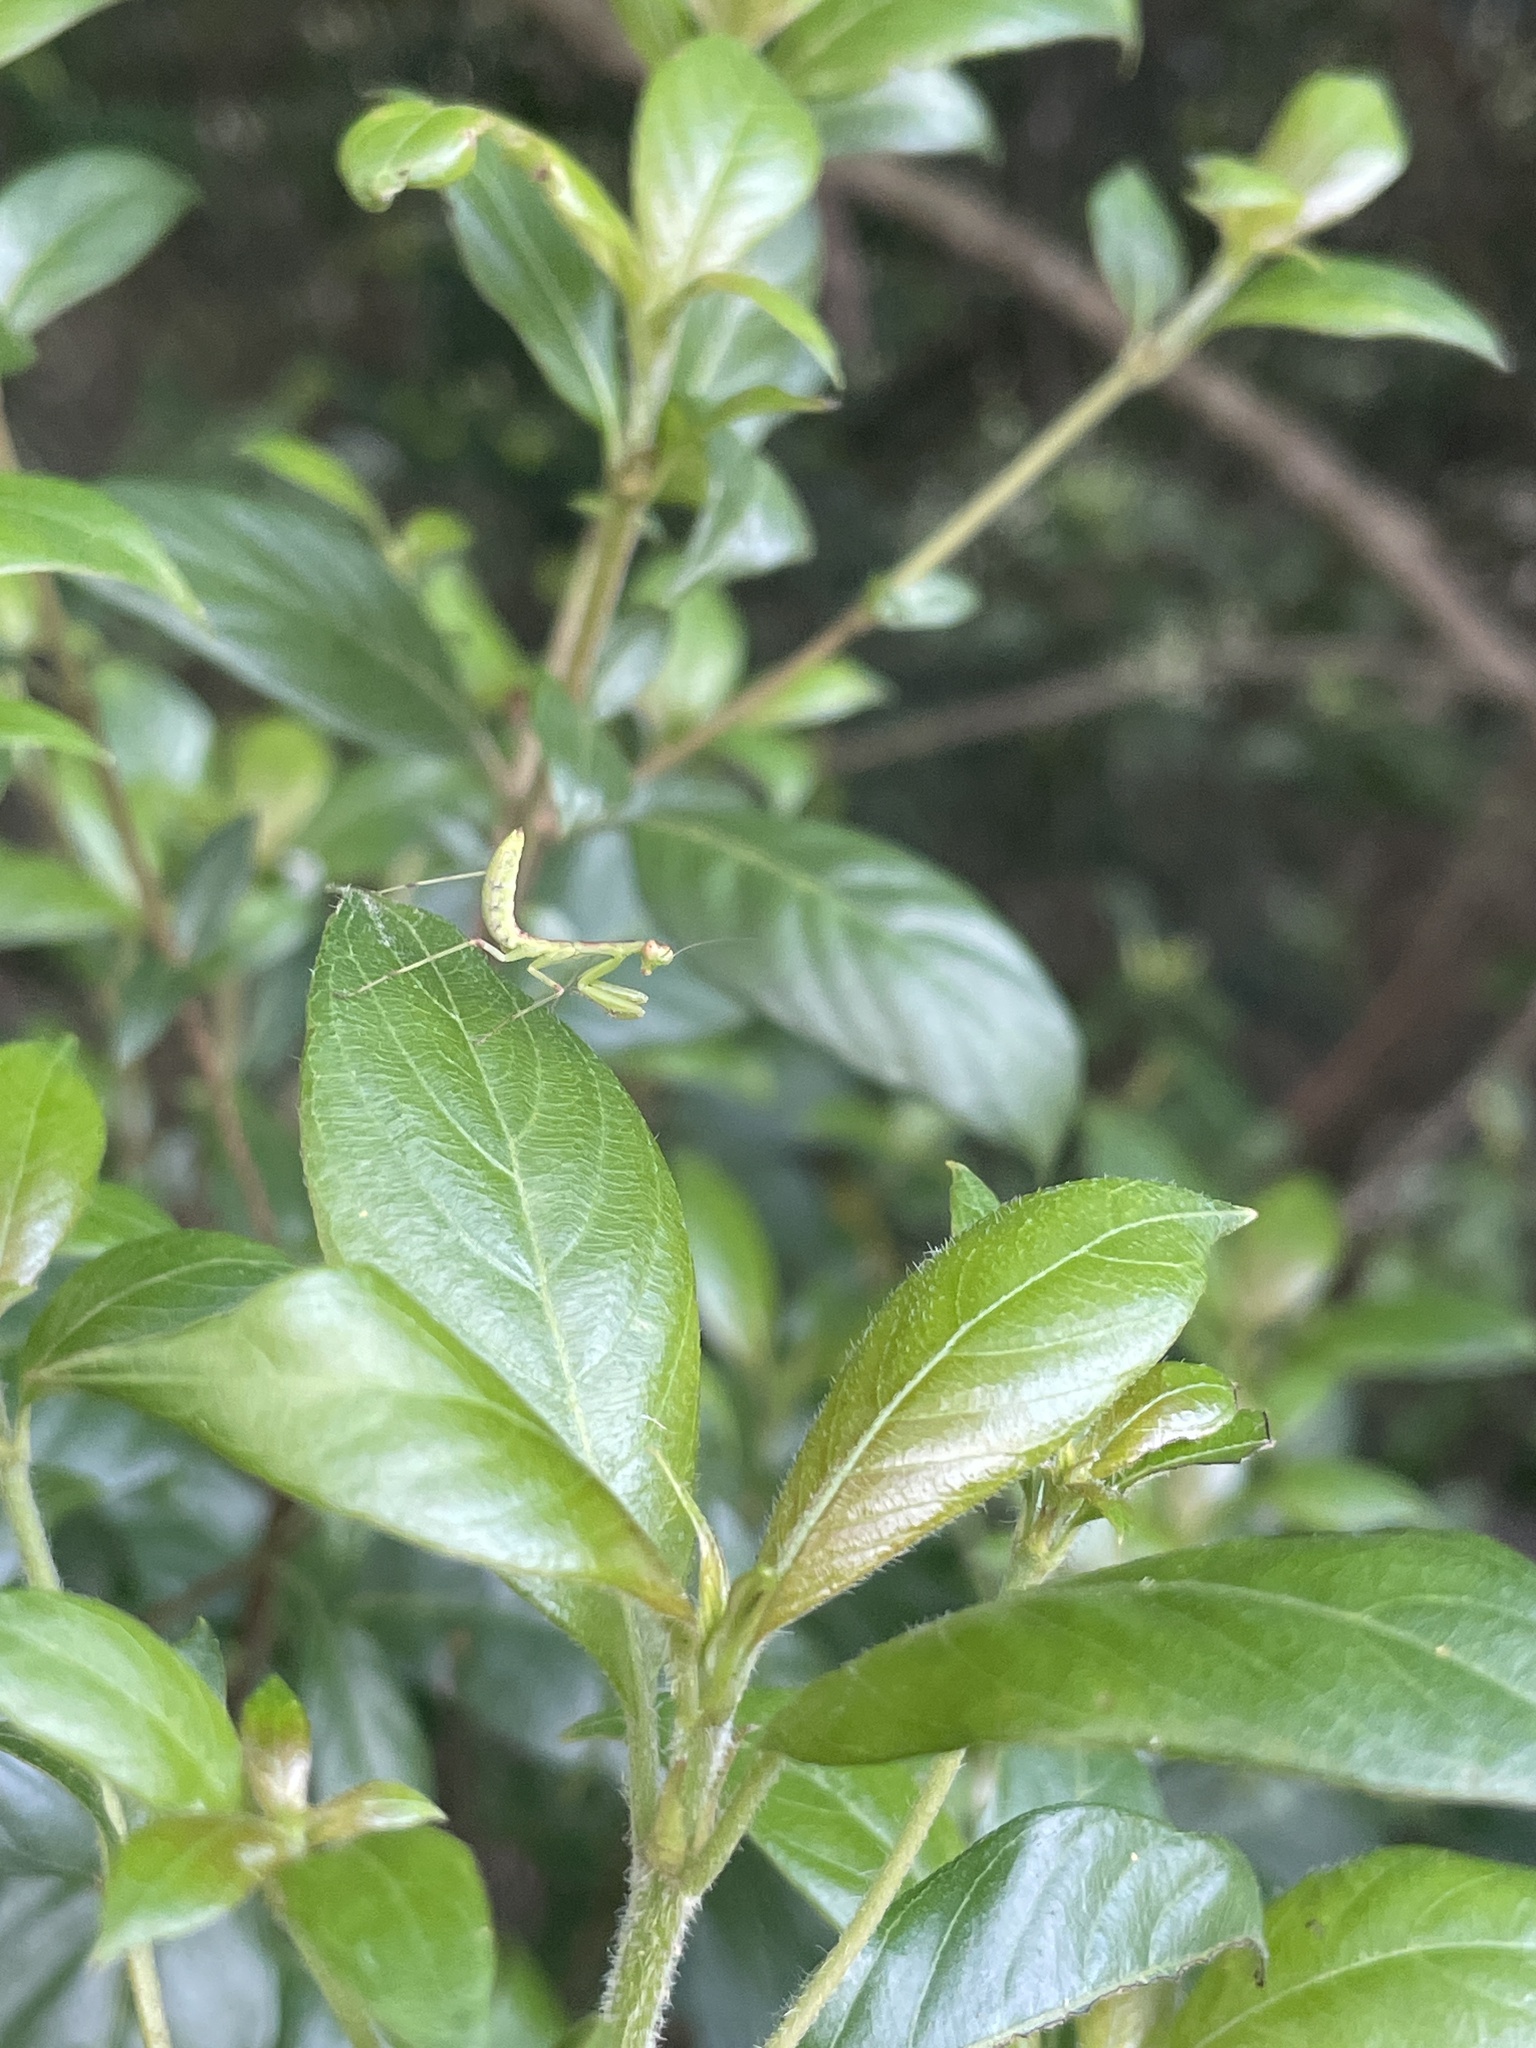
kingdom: Animalia
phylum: Arthropoda
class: Insecta
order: Mantodea
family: Mantidae
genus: Hierodula
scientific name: Hierodula patellifera
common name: Asian mantis
